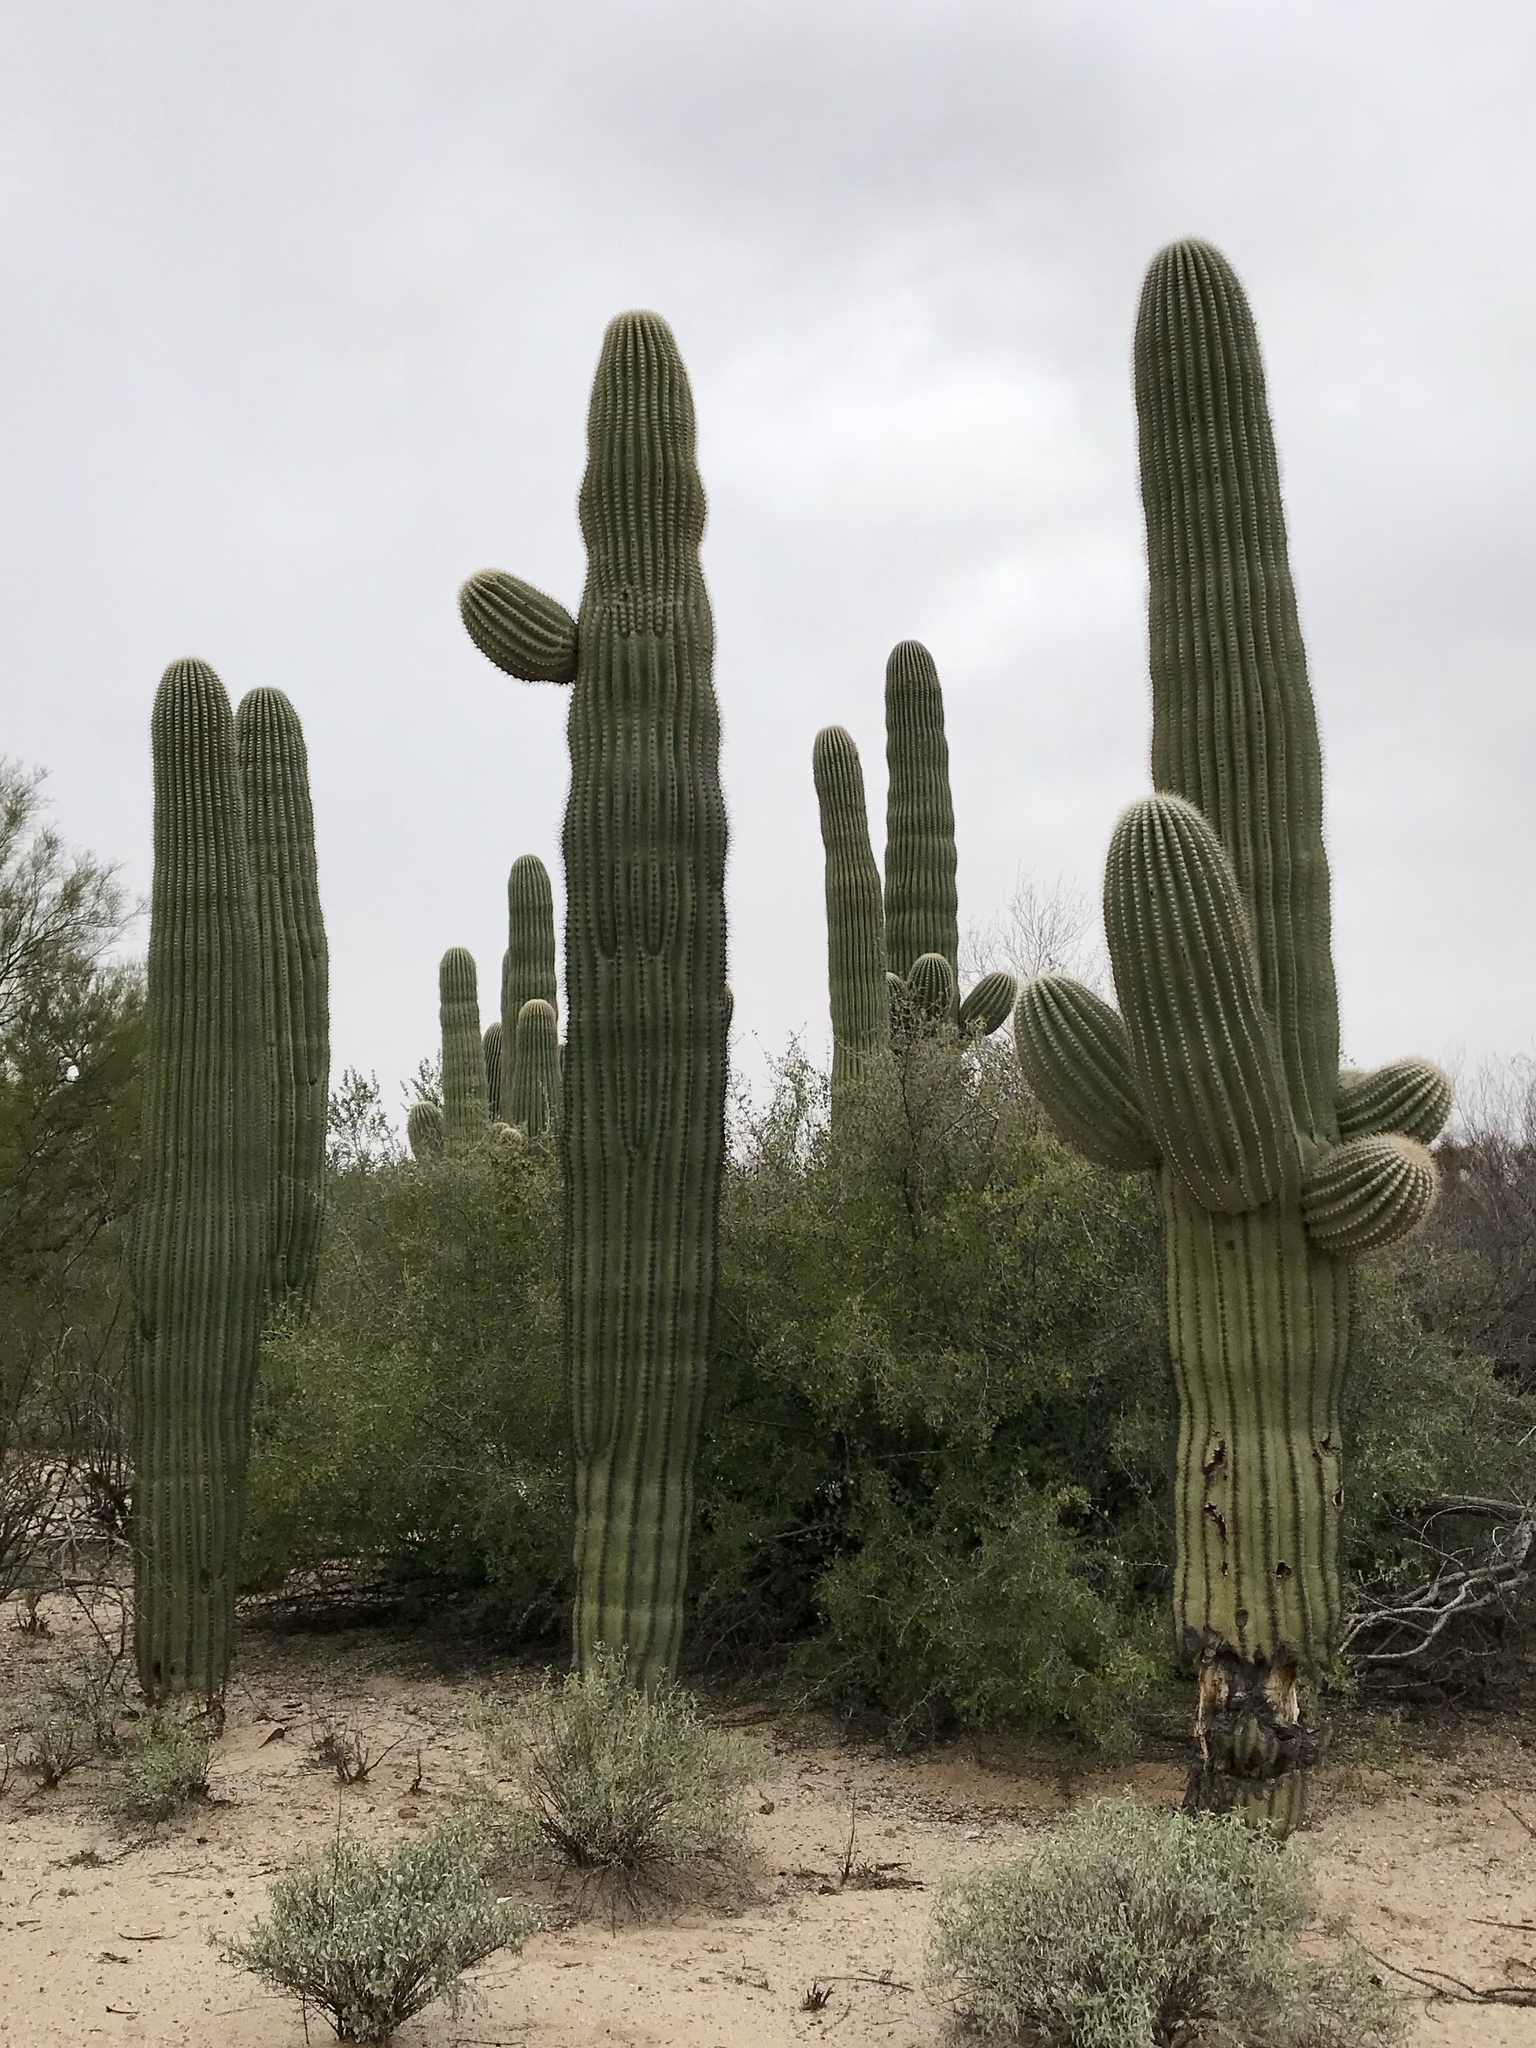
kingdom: Plantae
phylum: Tracheophyta
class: Magnoliopsida
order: Caryophyllales
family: Cactaceae
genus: Carnegiea
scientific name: Carnegiea gigantea
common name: Saguaro
